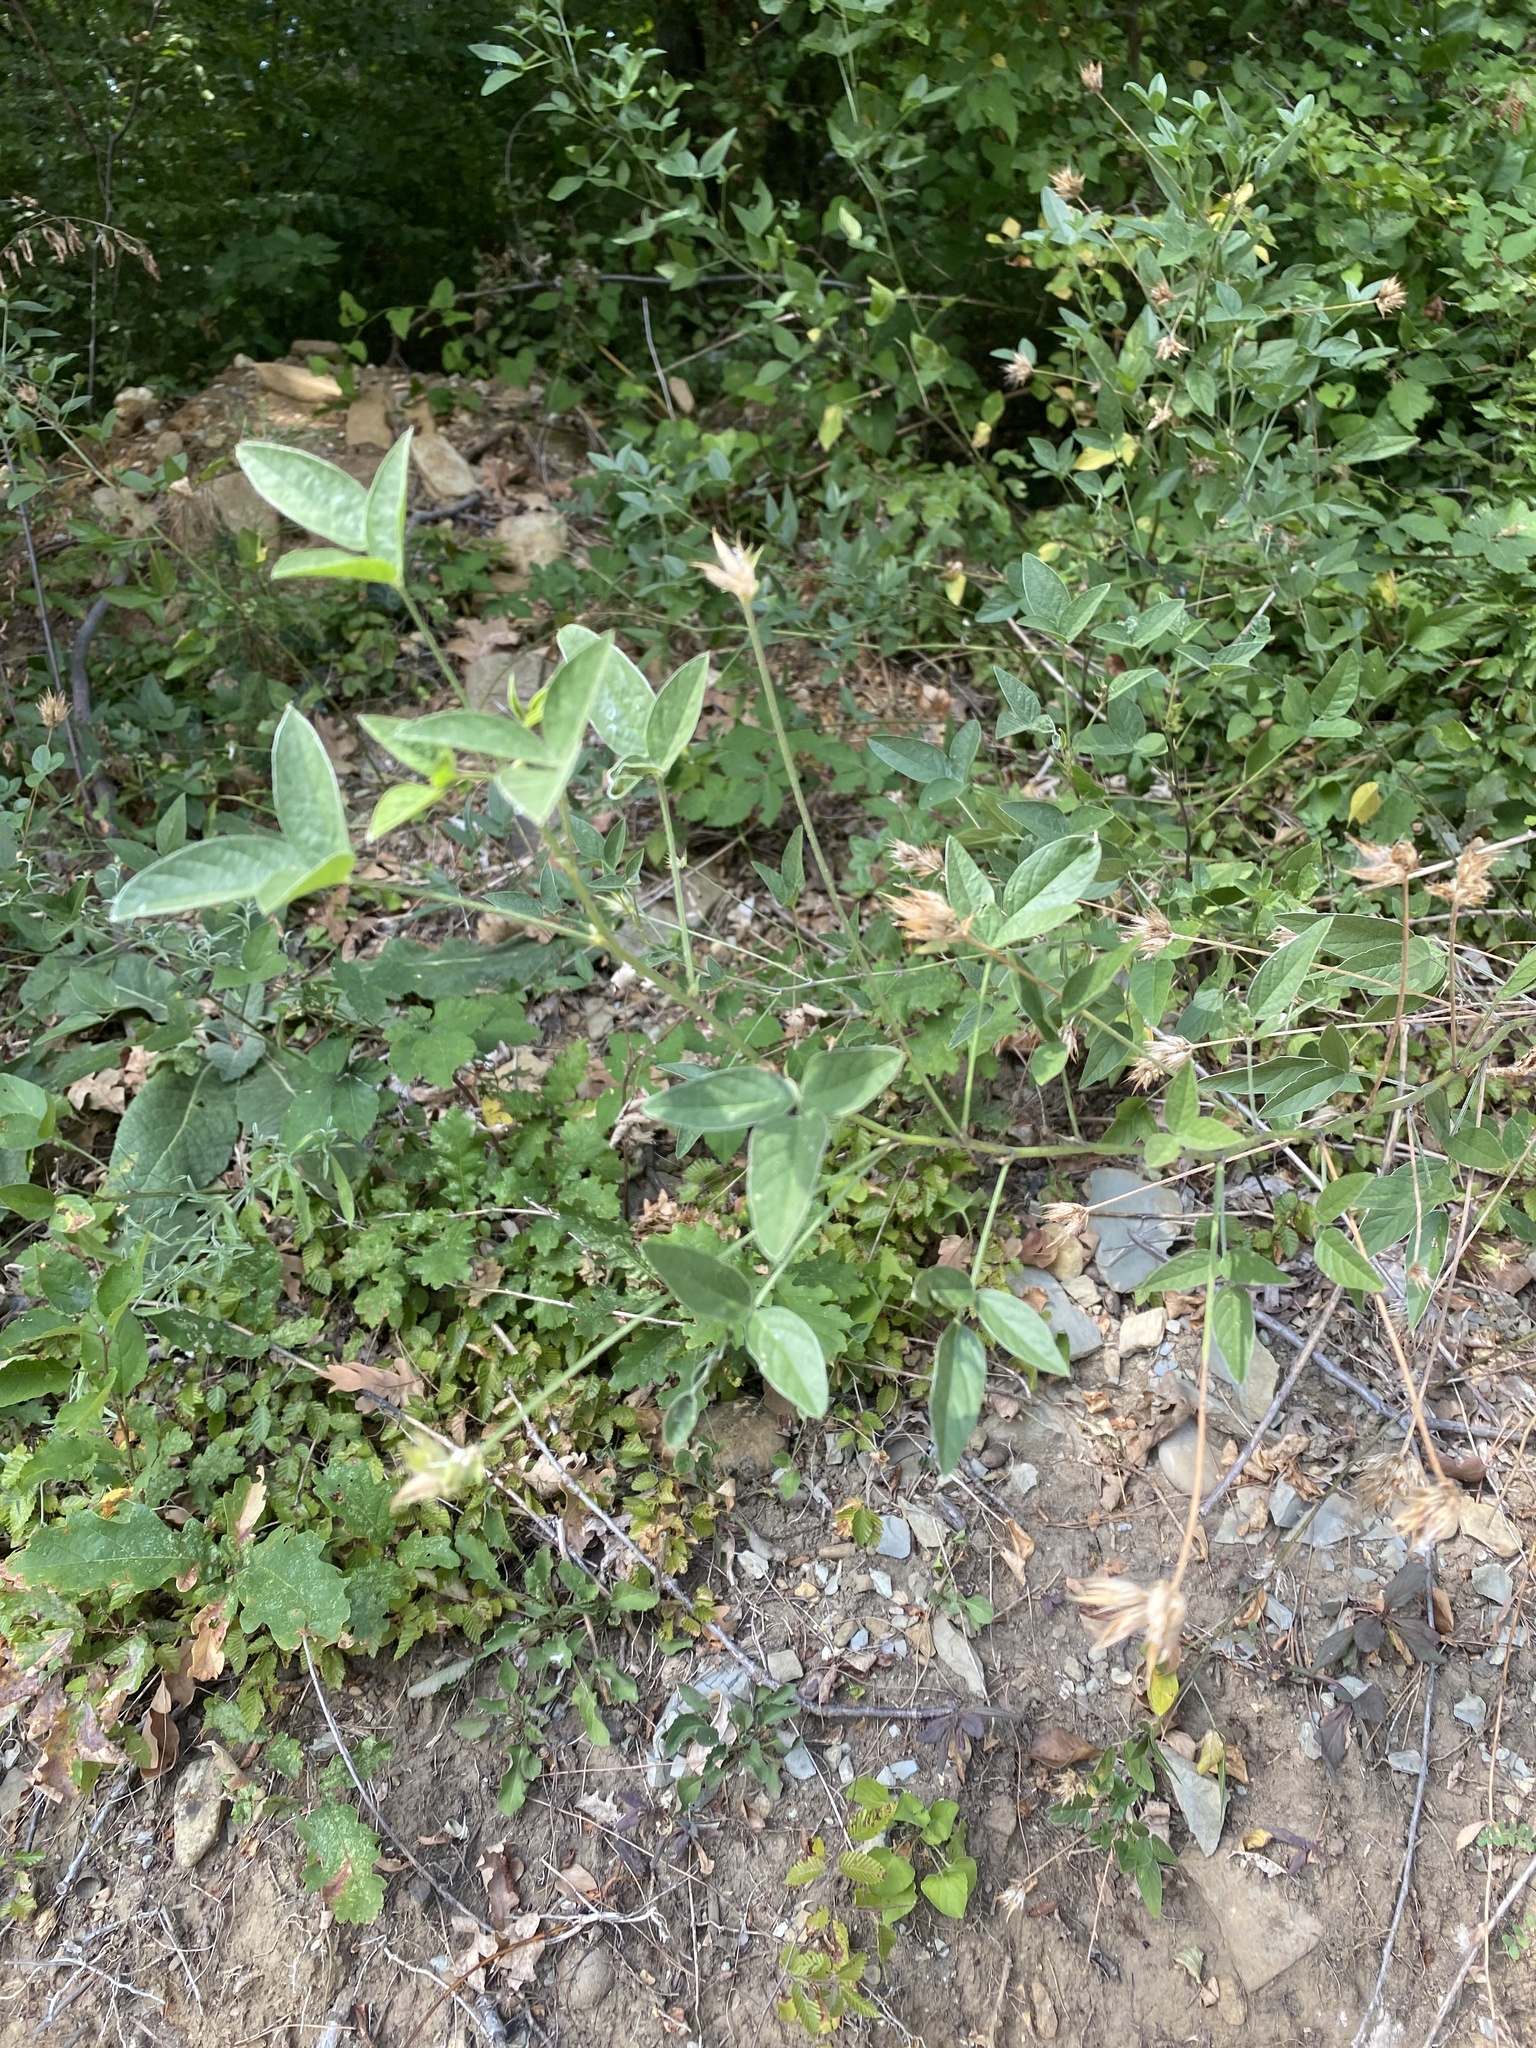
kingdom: Plantae
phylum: Tracheophyta
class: Magnoliopsida
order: Fabales
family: Fabaceae
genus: Bituminaria
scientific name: Bituminaria bituminosa
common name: Arabian pea
